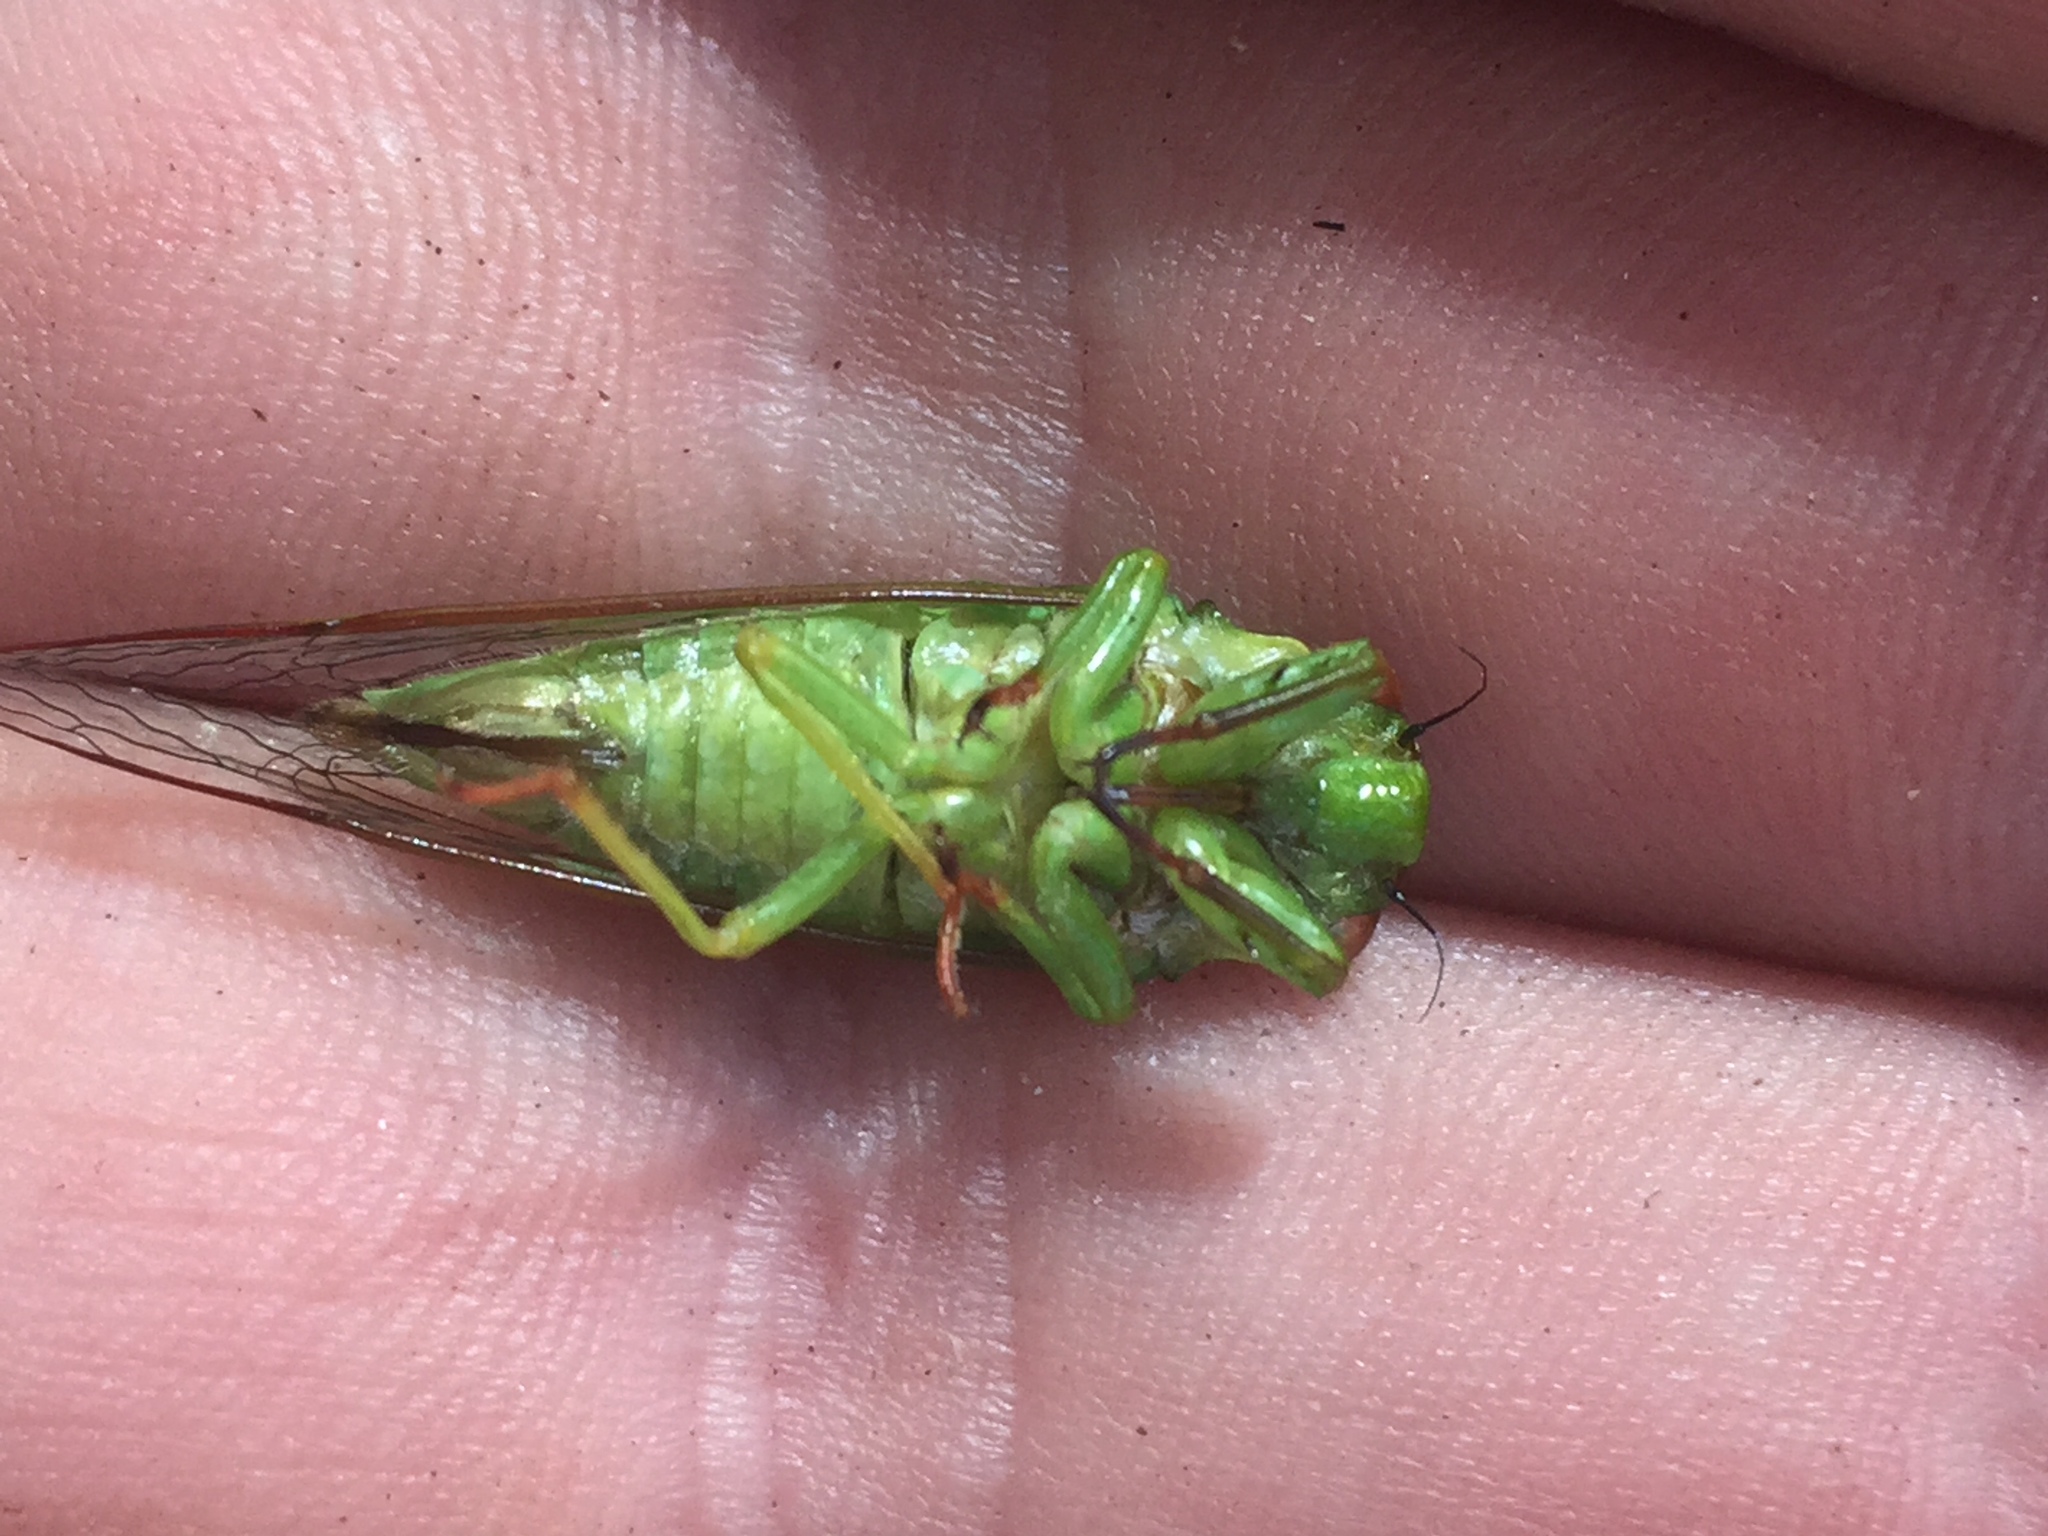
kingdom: Animalia
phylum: Arthropoda
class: Insecta
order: Hemiptera
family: Cicadidae
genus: Kikihia
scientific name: Kikihia ochrina
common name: April green cicada
